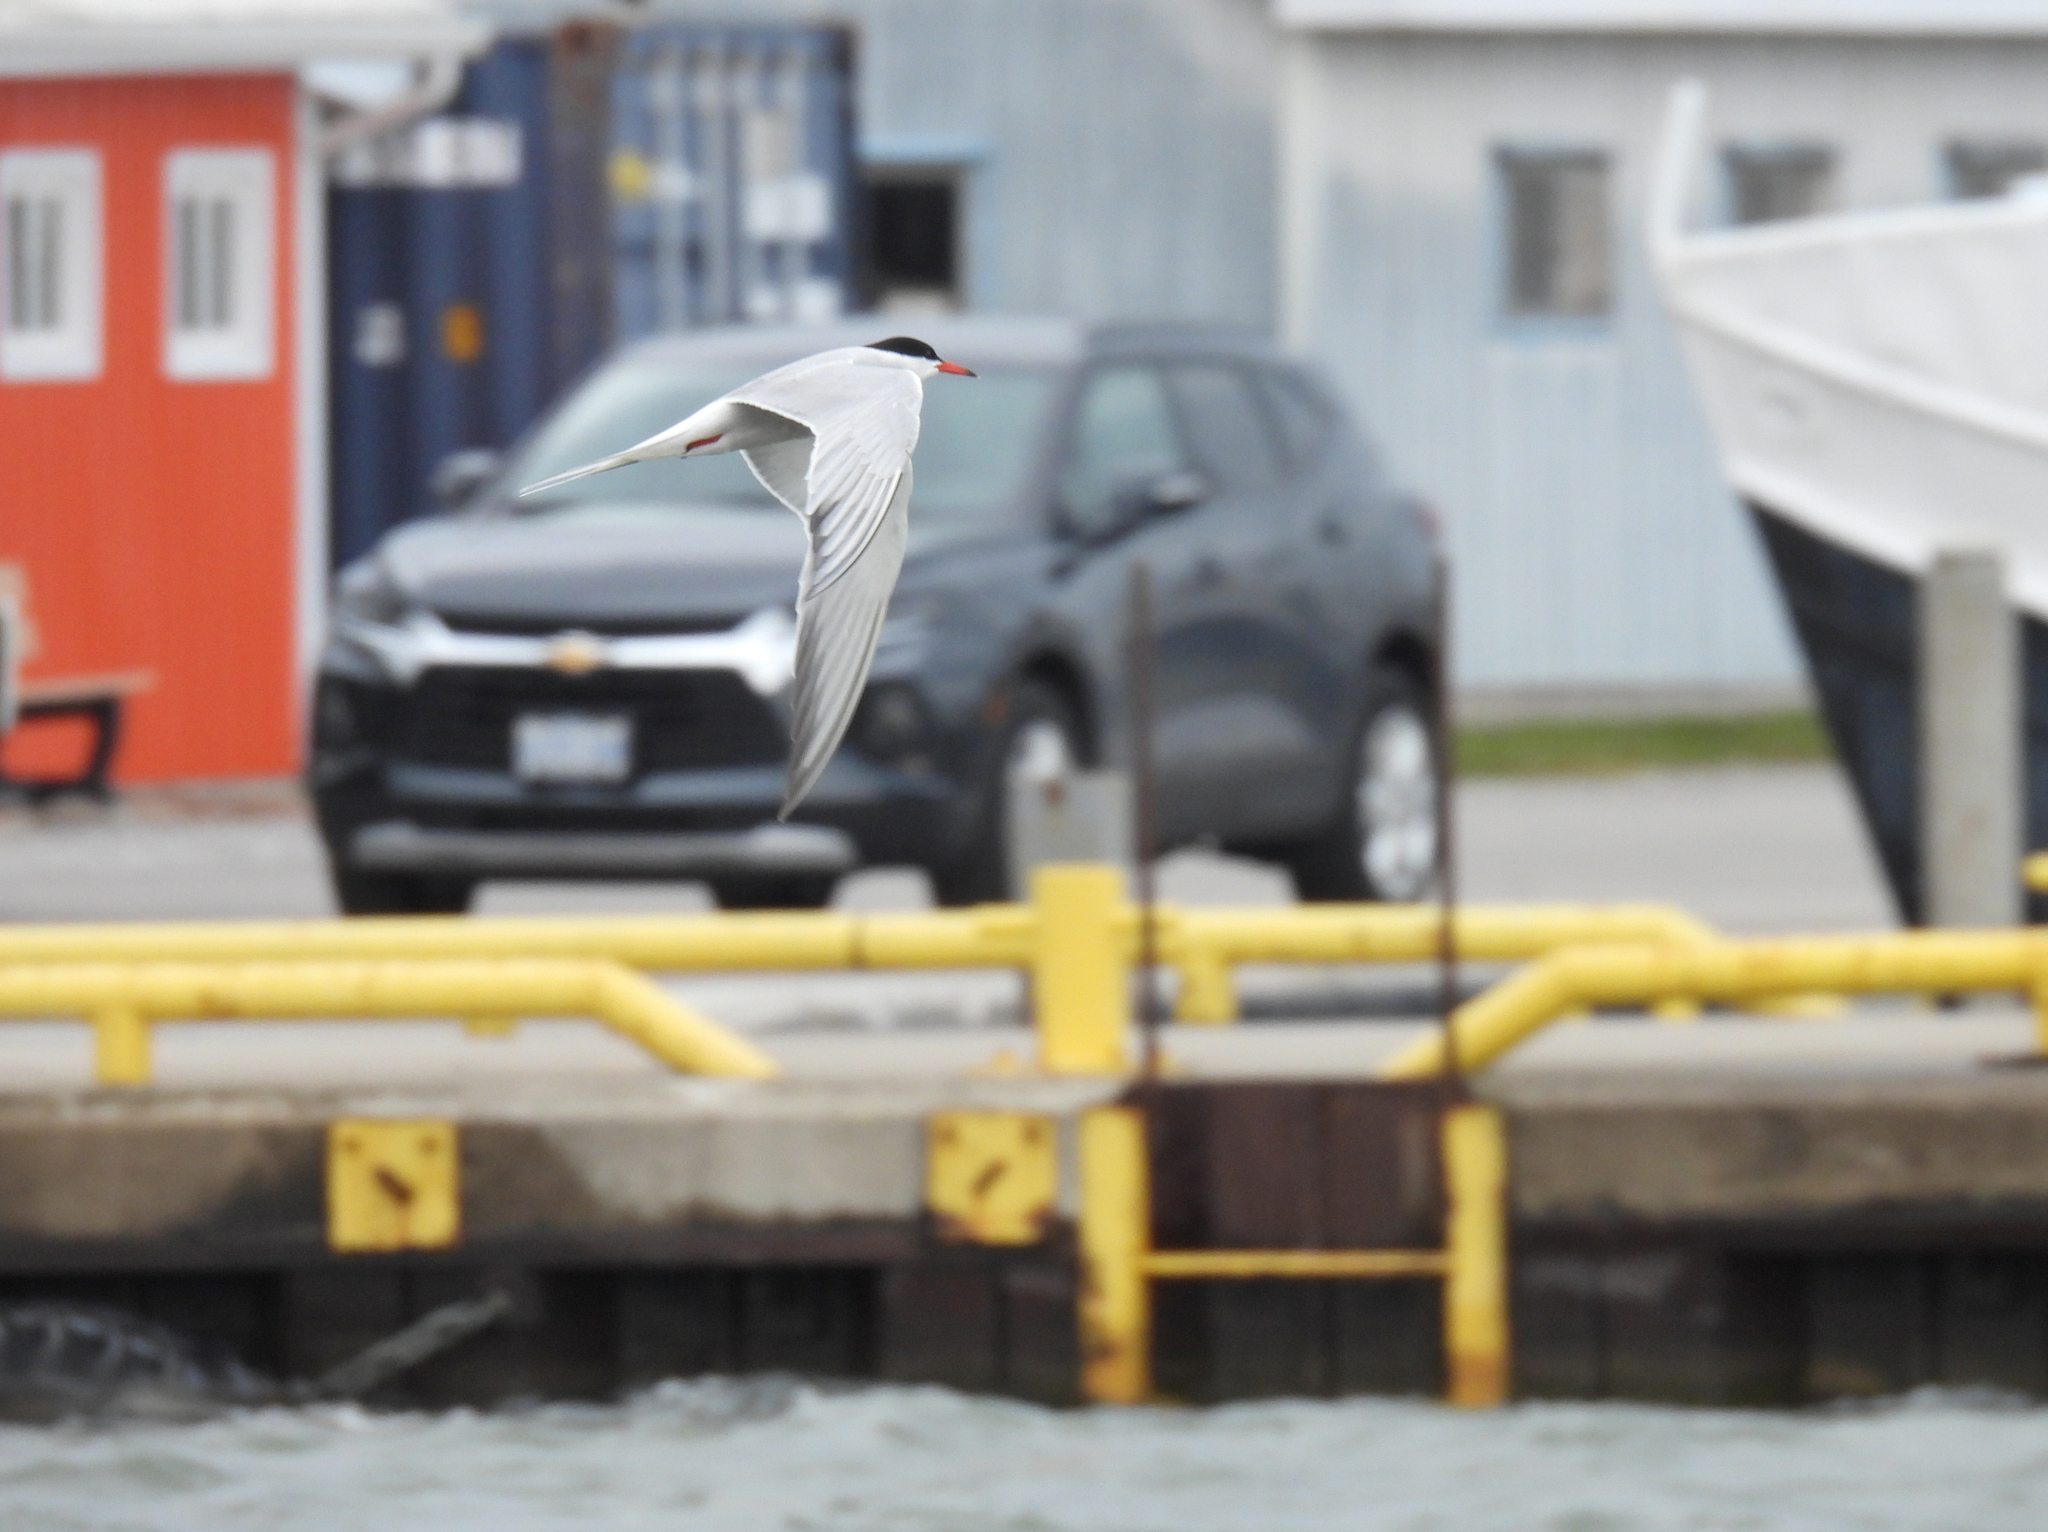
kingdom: Animalia
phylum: Chordata
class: Aves
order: Charadriiformes
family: Laridae
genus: Sterna
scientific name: Sterna hirundo
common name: Common tern
